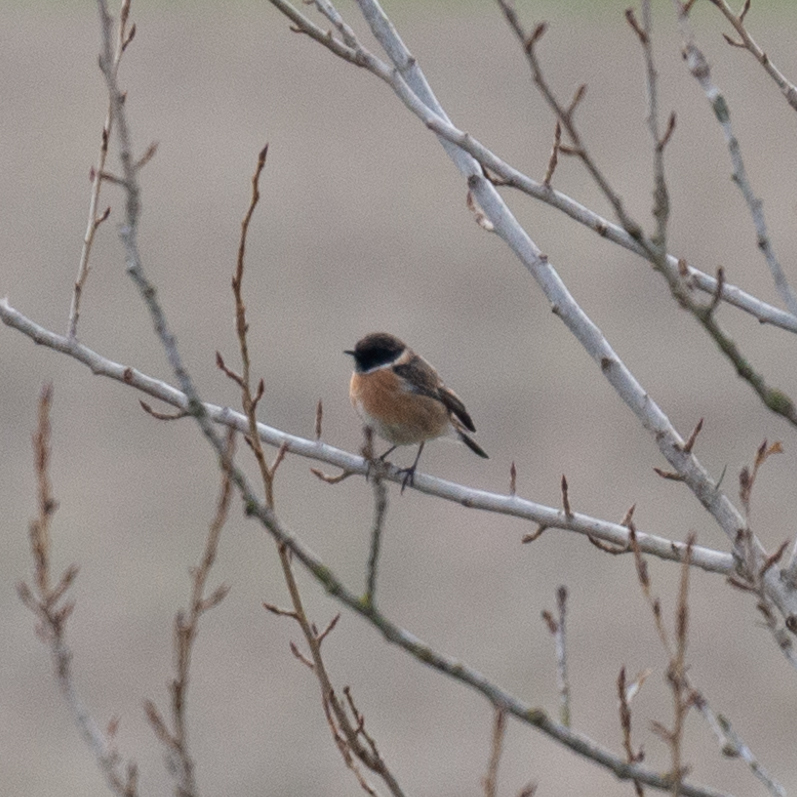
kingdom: Animalia
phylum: Chordata
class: Aves
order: Passeriformes
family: Muscicapidae
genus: Saxicola
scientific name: Saxicola rubicola
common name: European stonechat
